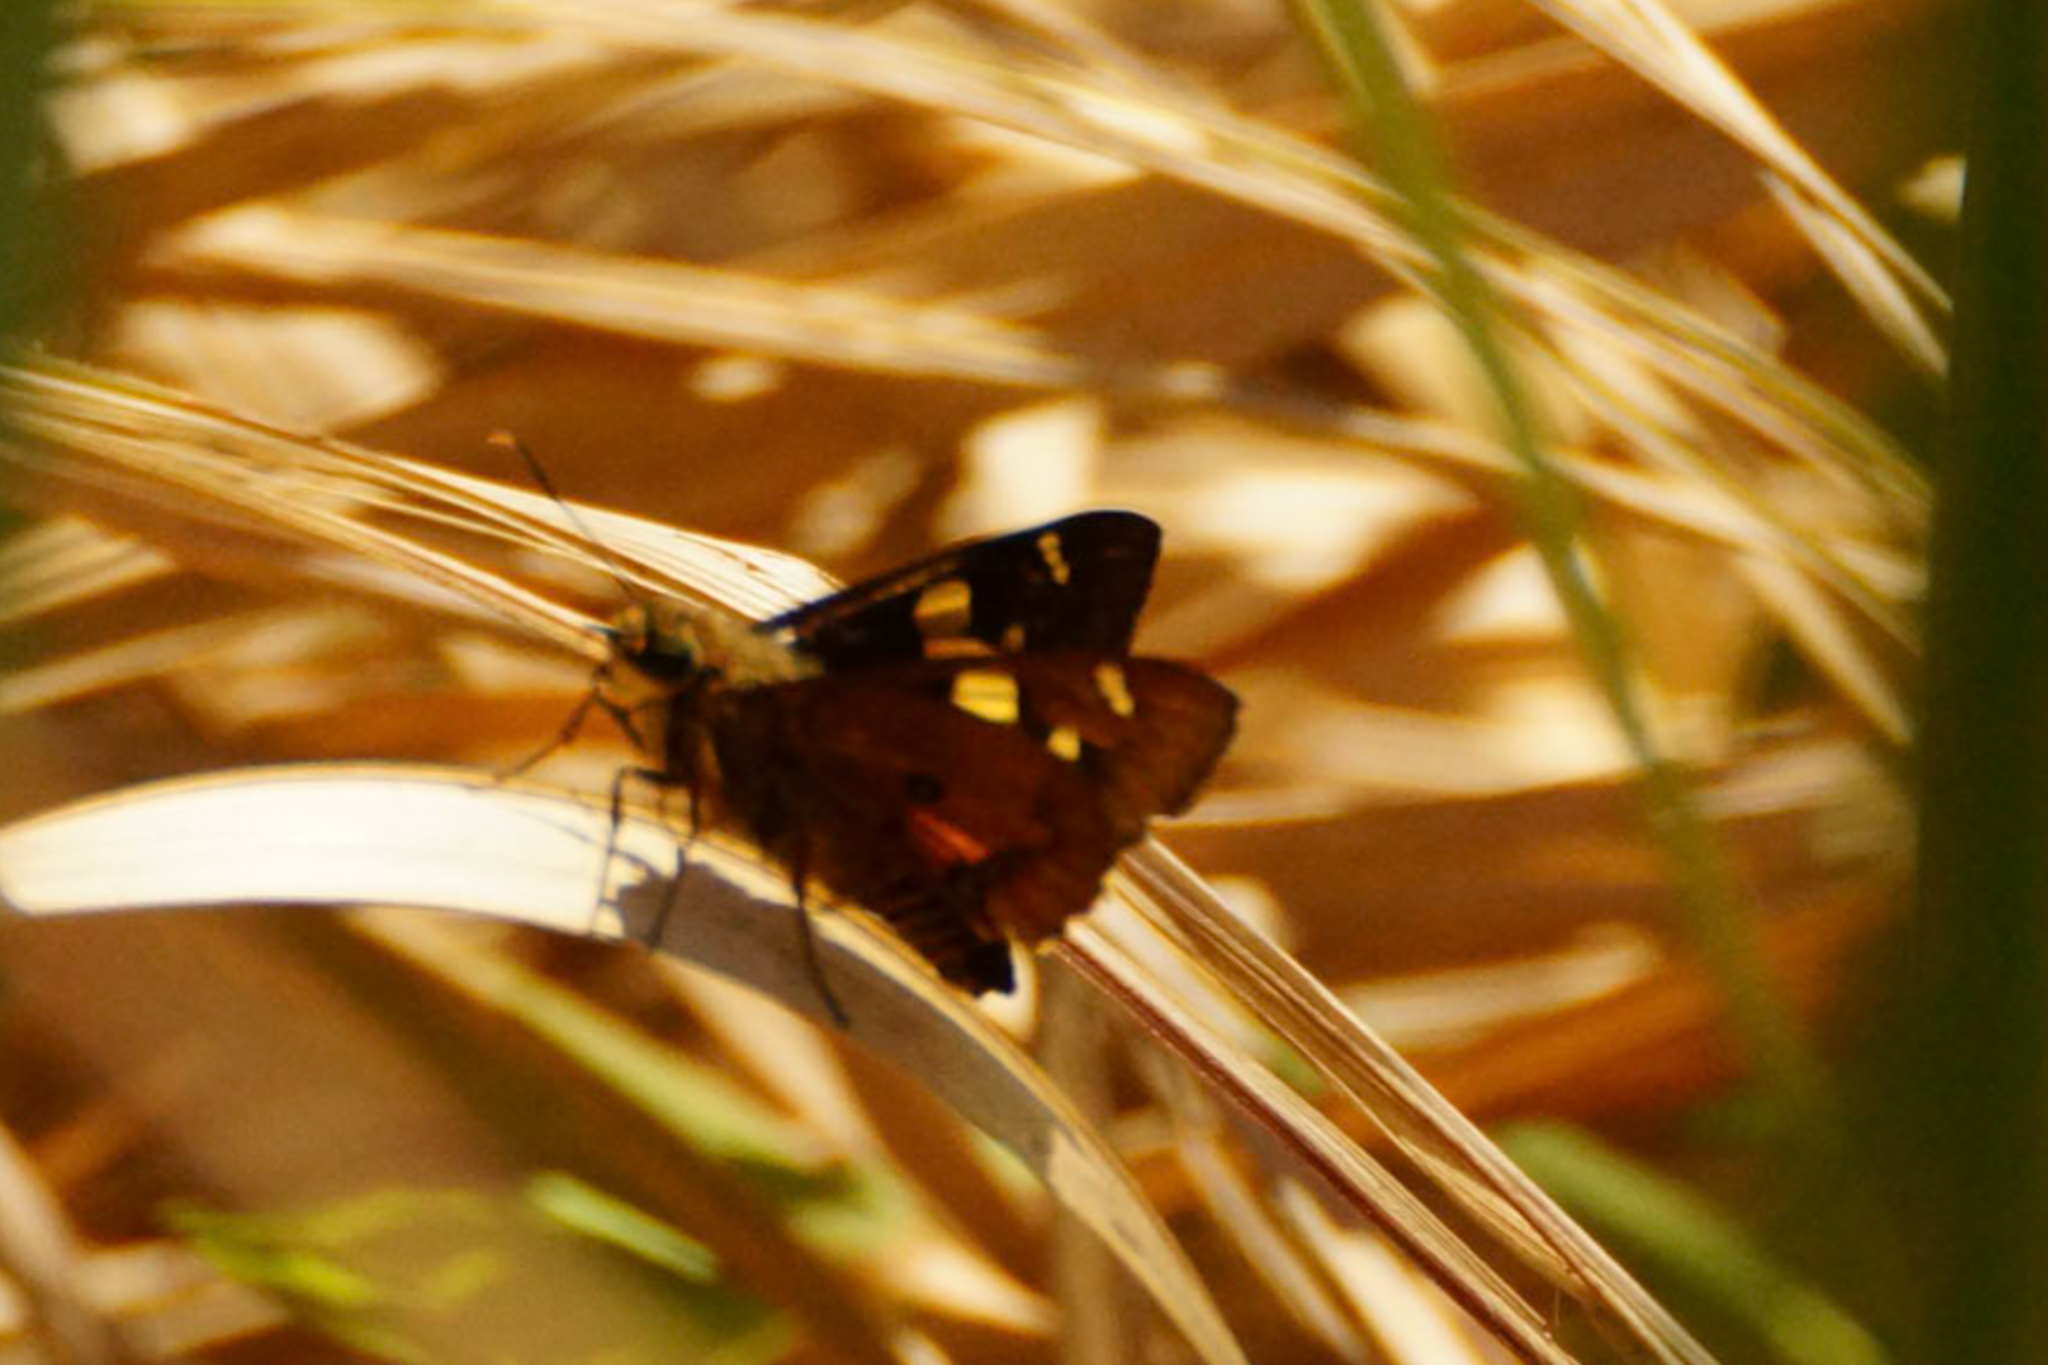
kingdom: Animalia
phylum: Arthropoda
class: Insecta
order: Lepidoptera
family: Hesperiidae
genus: Trapezites
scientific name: Trapezites symmomus
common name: Splendid ochre
